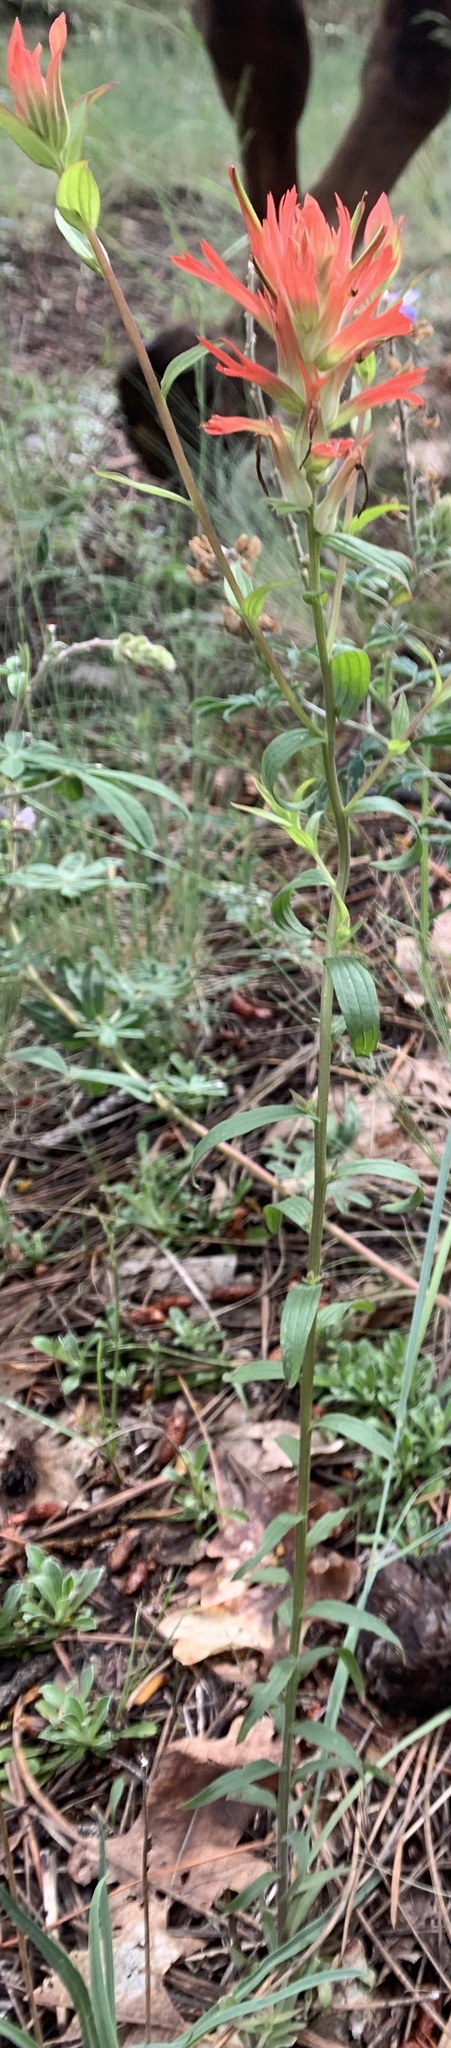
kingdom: Plantae
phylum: Tracheophyta
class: Magnoliopsida
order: Lamiales
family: Orobanchaceae
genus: Castilleja
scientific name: Castilleja miniata
